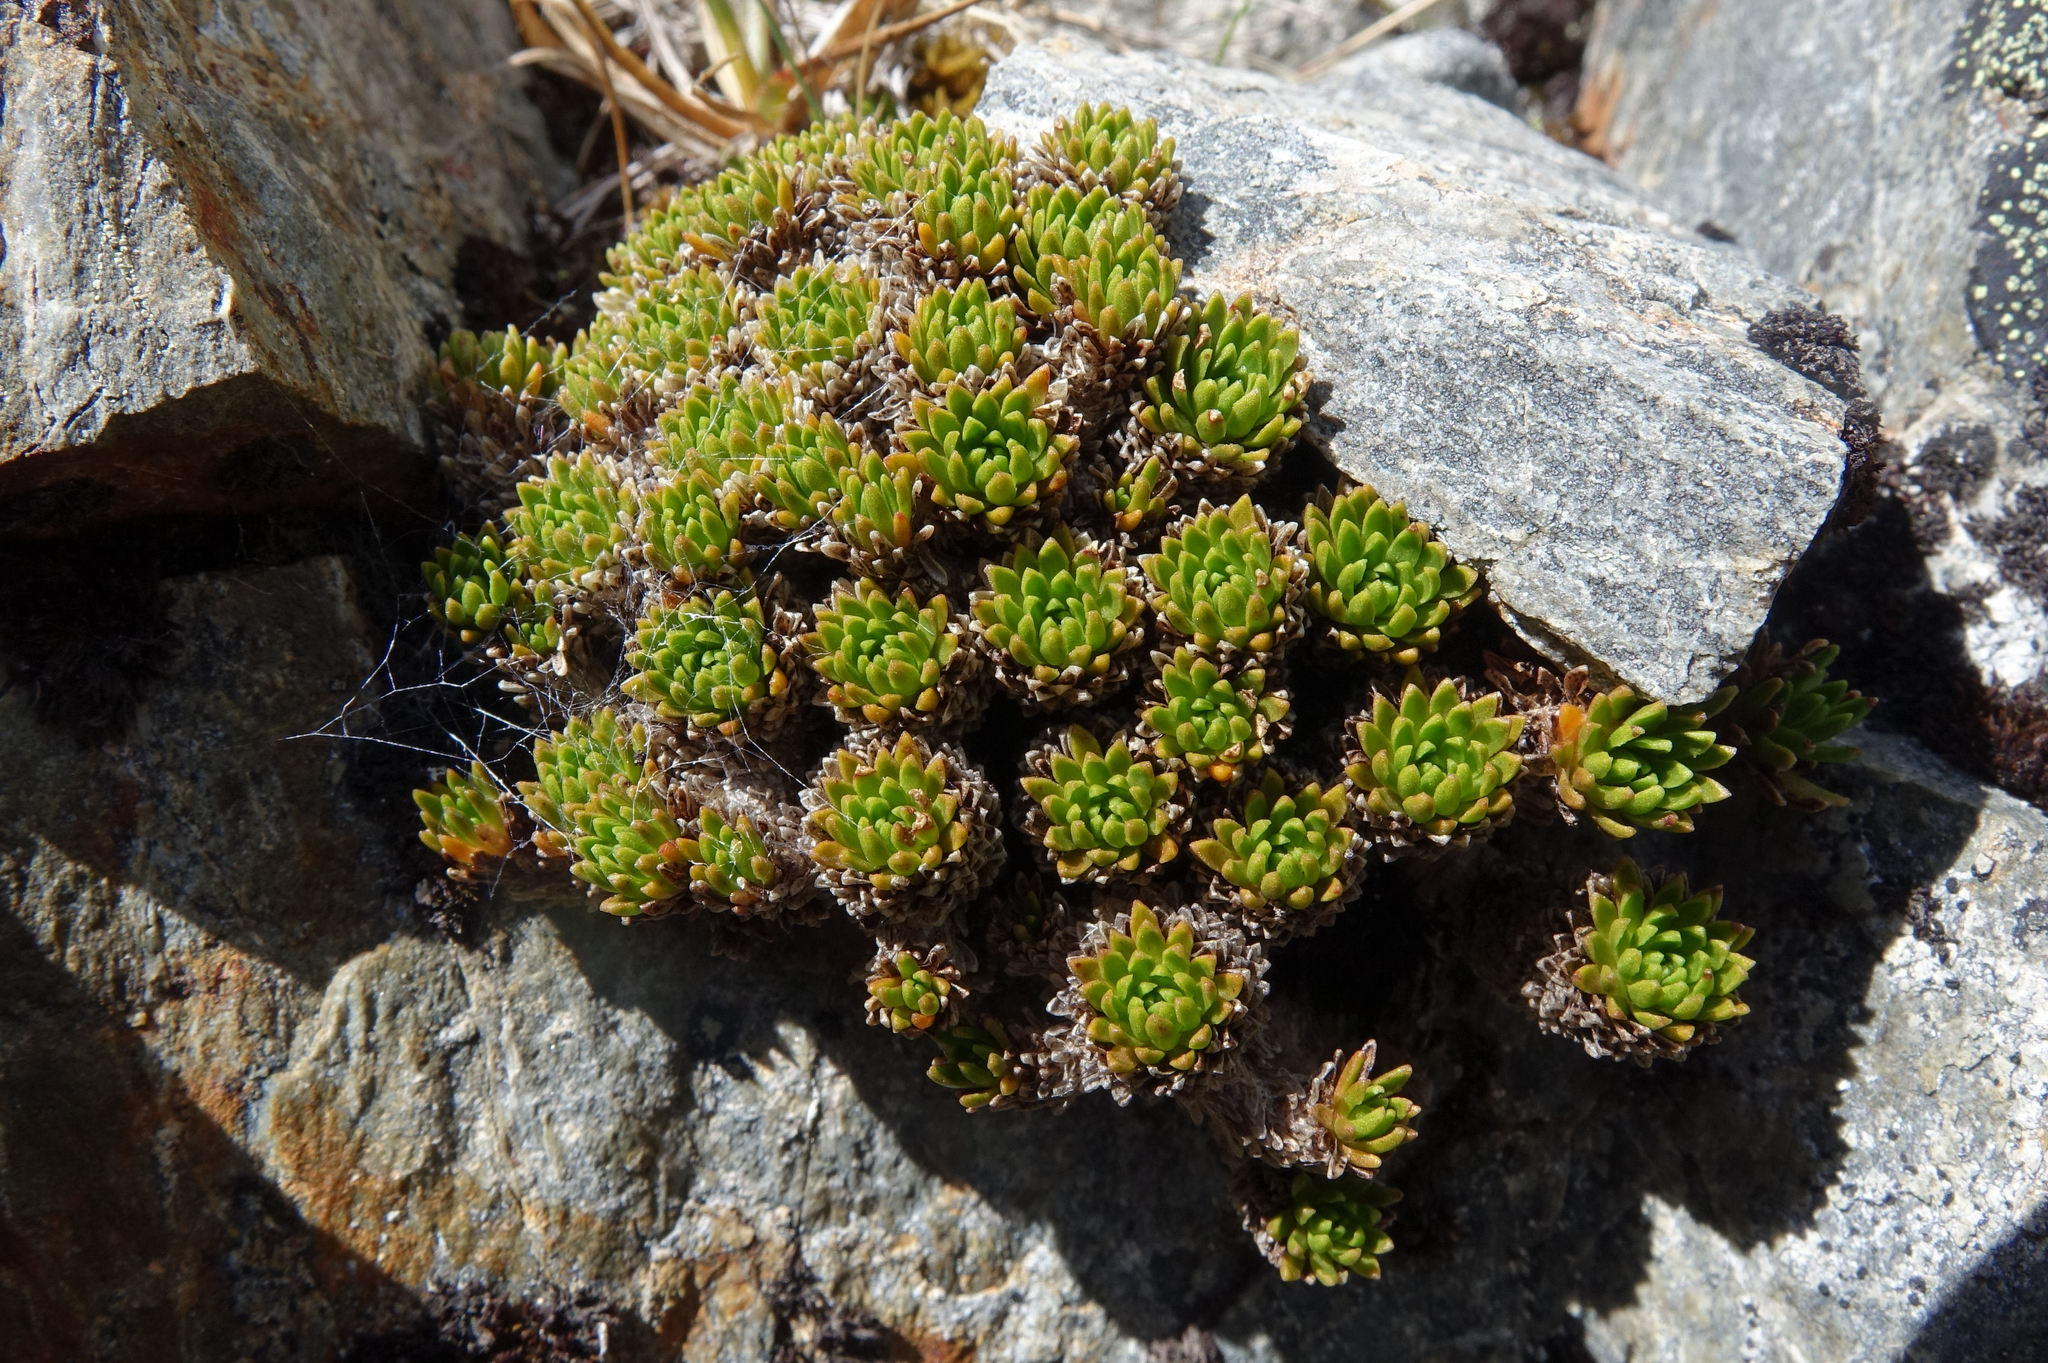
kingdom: Plantae
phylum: Tracheophyta
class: Magnoliopsida
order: Caryophyllales
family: Montiaceae
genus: Hectorella
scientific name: Hectorella caespitosa
